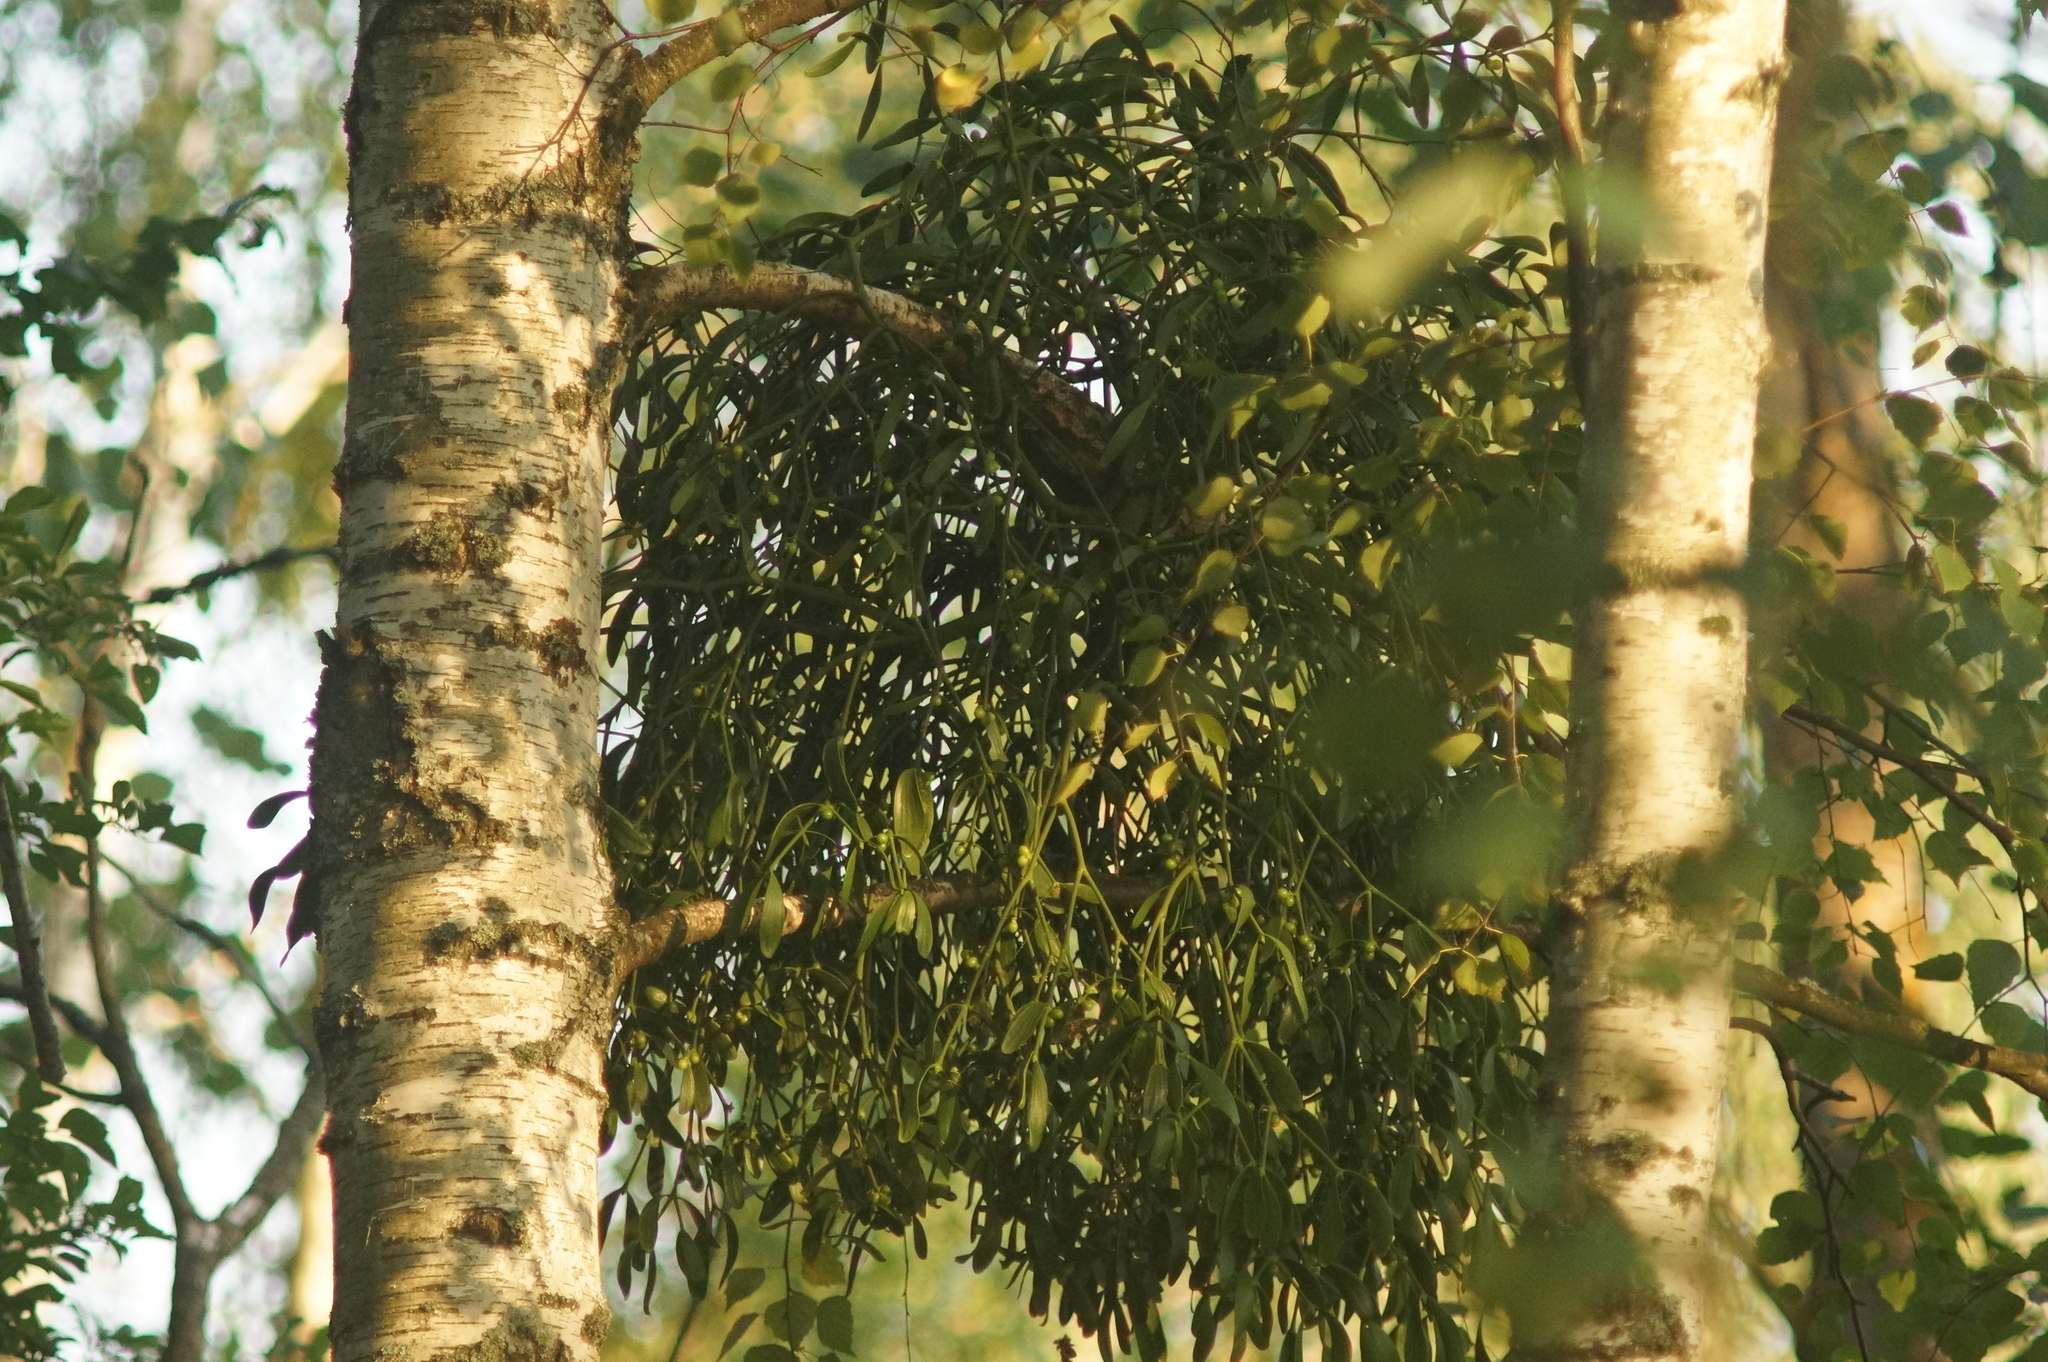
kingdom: Plantae
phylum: Tracheophyta
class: Magnoliopsida
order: Santalales
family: Viscaceae
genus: Viscum
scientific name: Viscum album
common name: Mistletoe
